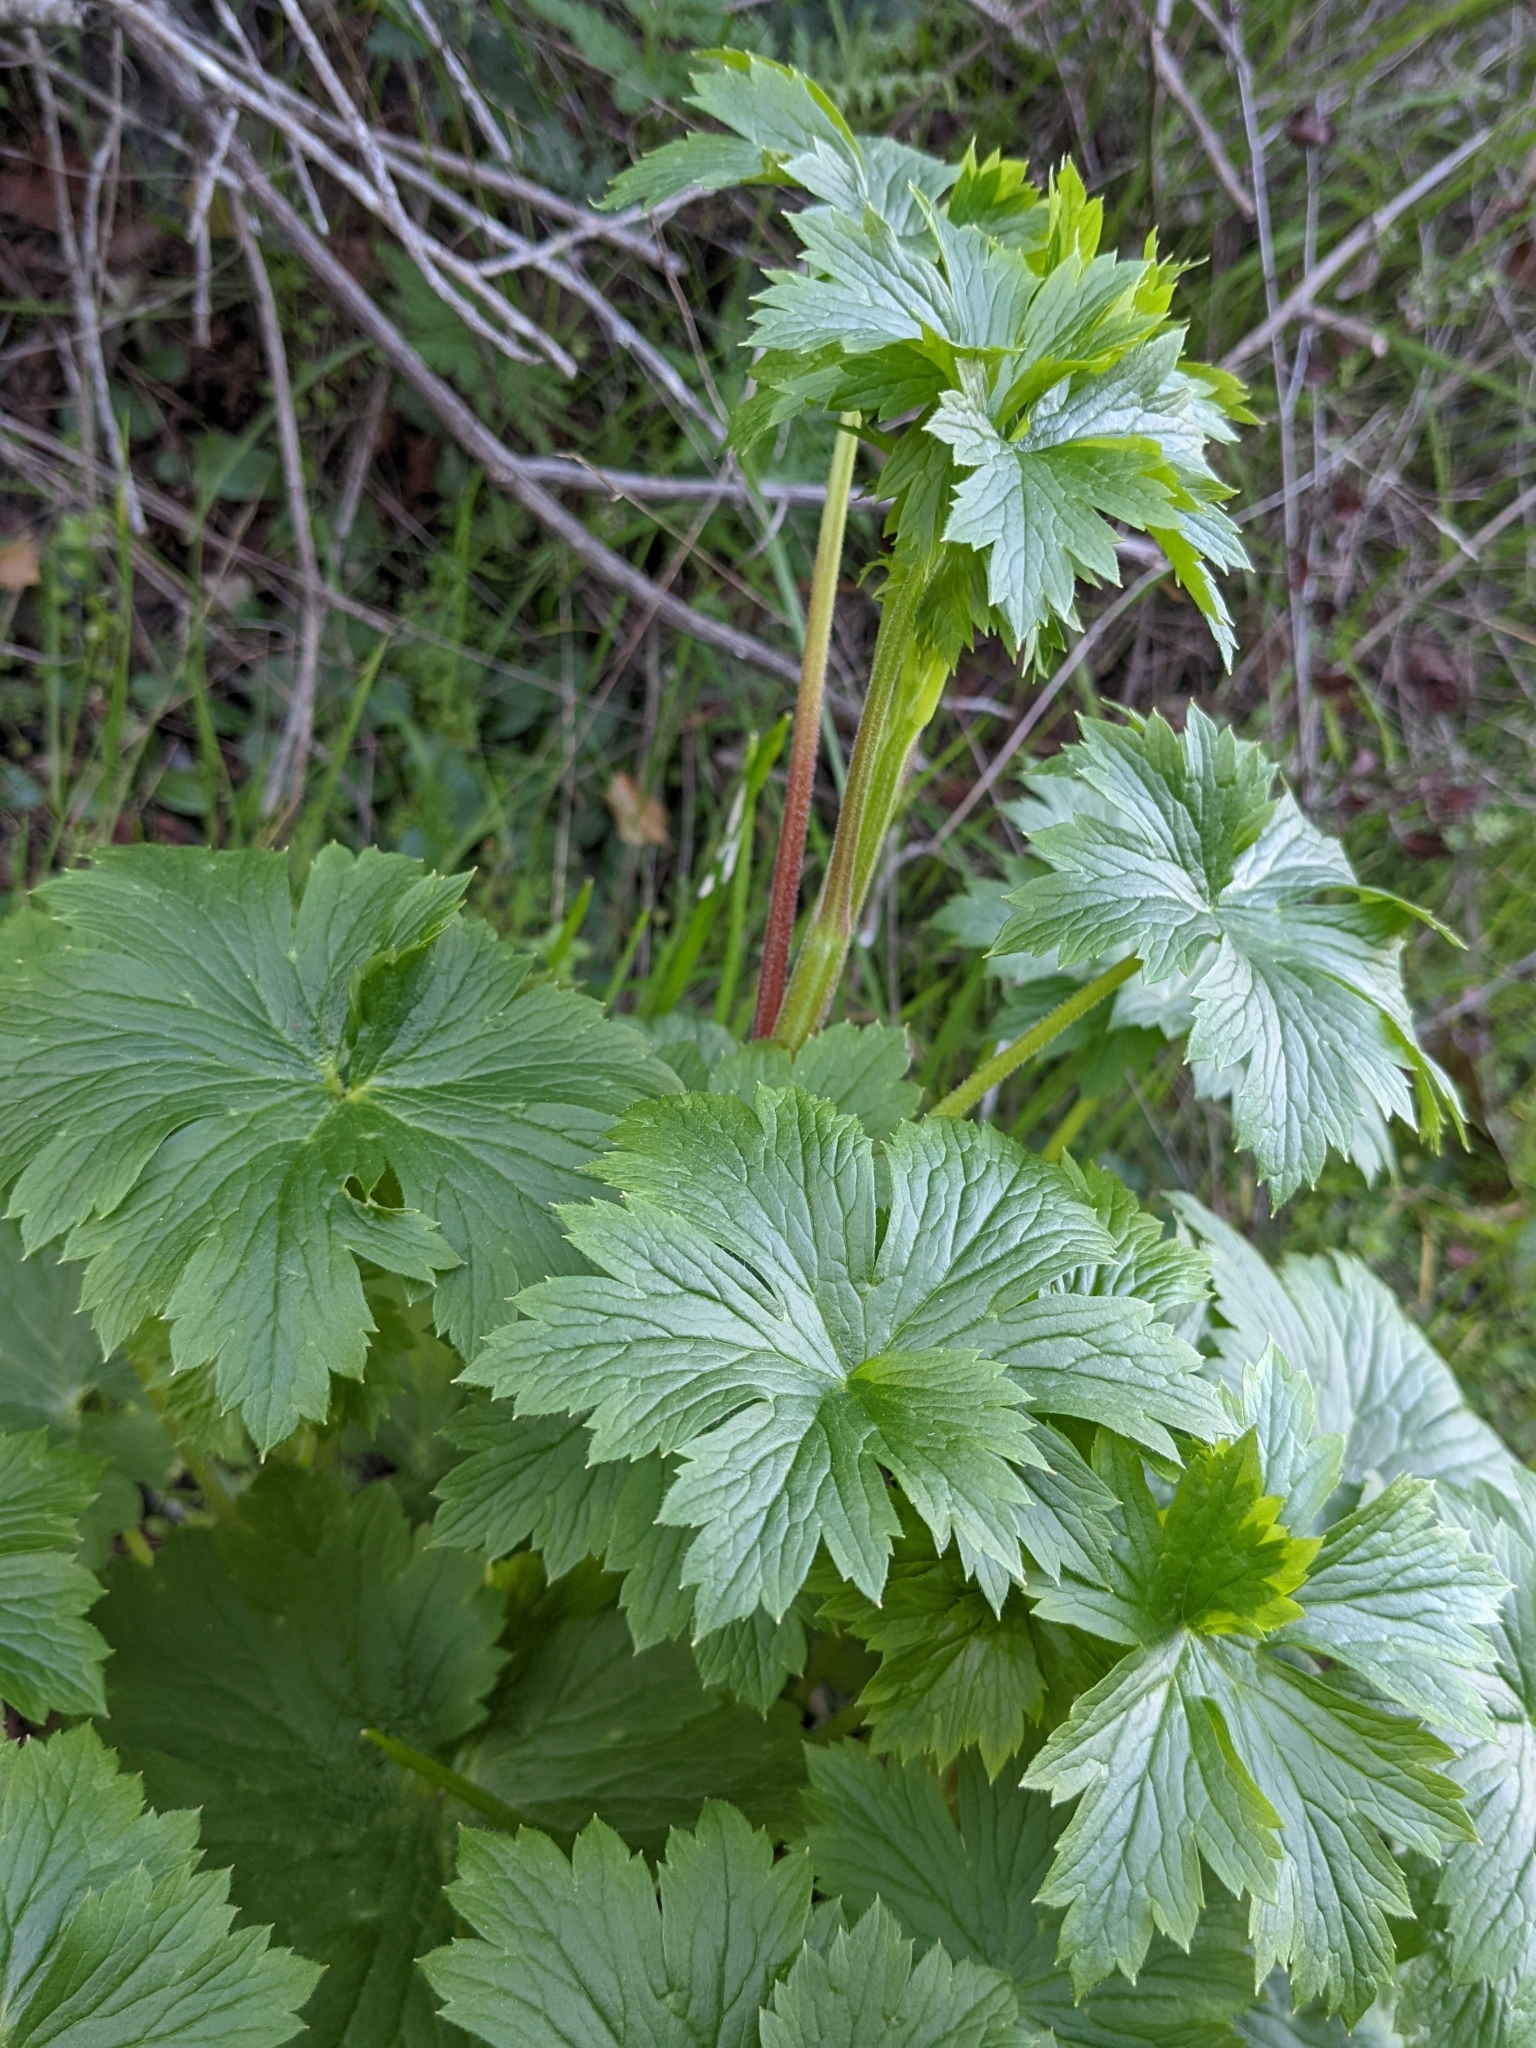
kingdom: Plantae
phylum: Tracheophyta
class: Magnoliopsida
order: Ranunculales
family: Ranunculaceae
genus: Delphinium
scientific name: Delphinium californicum
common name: California larkspur
